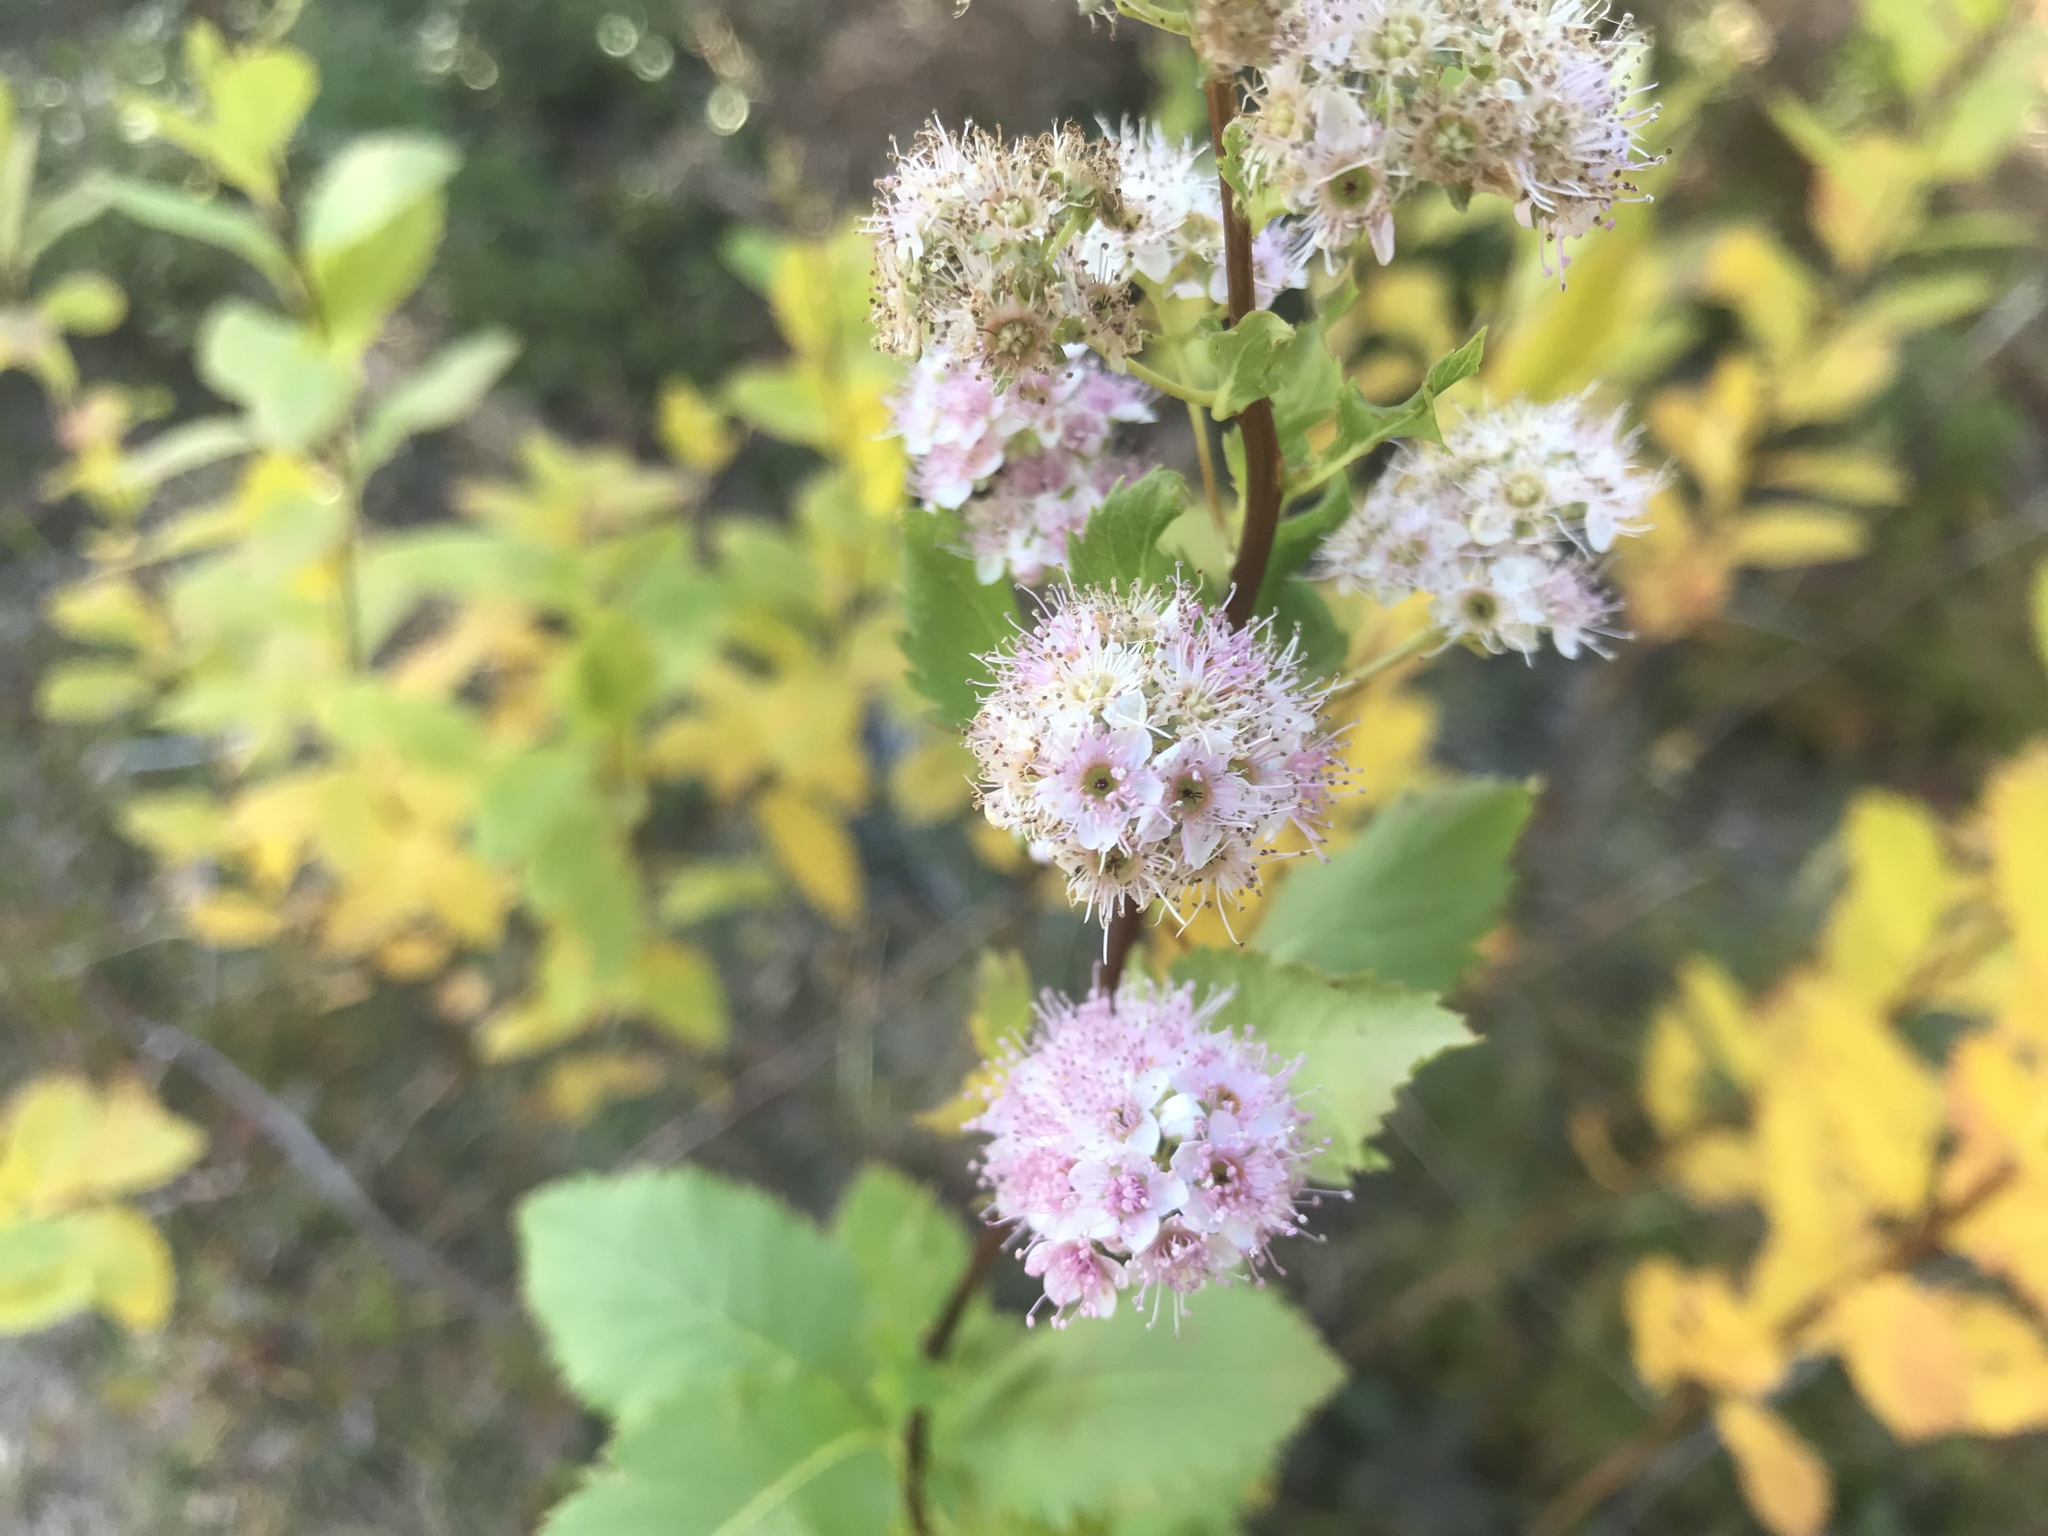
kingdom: Plantae
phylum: Tracheophyta
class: Magnoliopsida
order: Rosales
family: Rosaceae
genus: Spiraea
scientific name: Spiraea alba
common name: Pale bridewort
